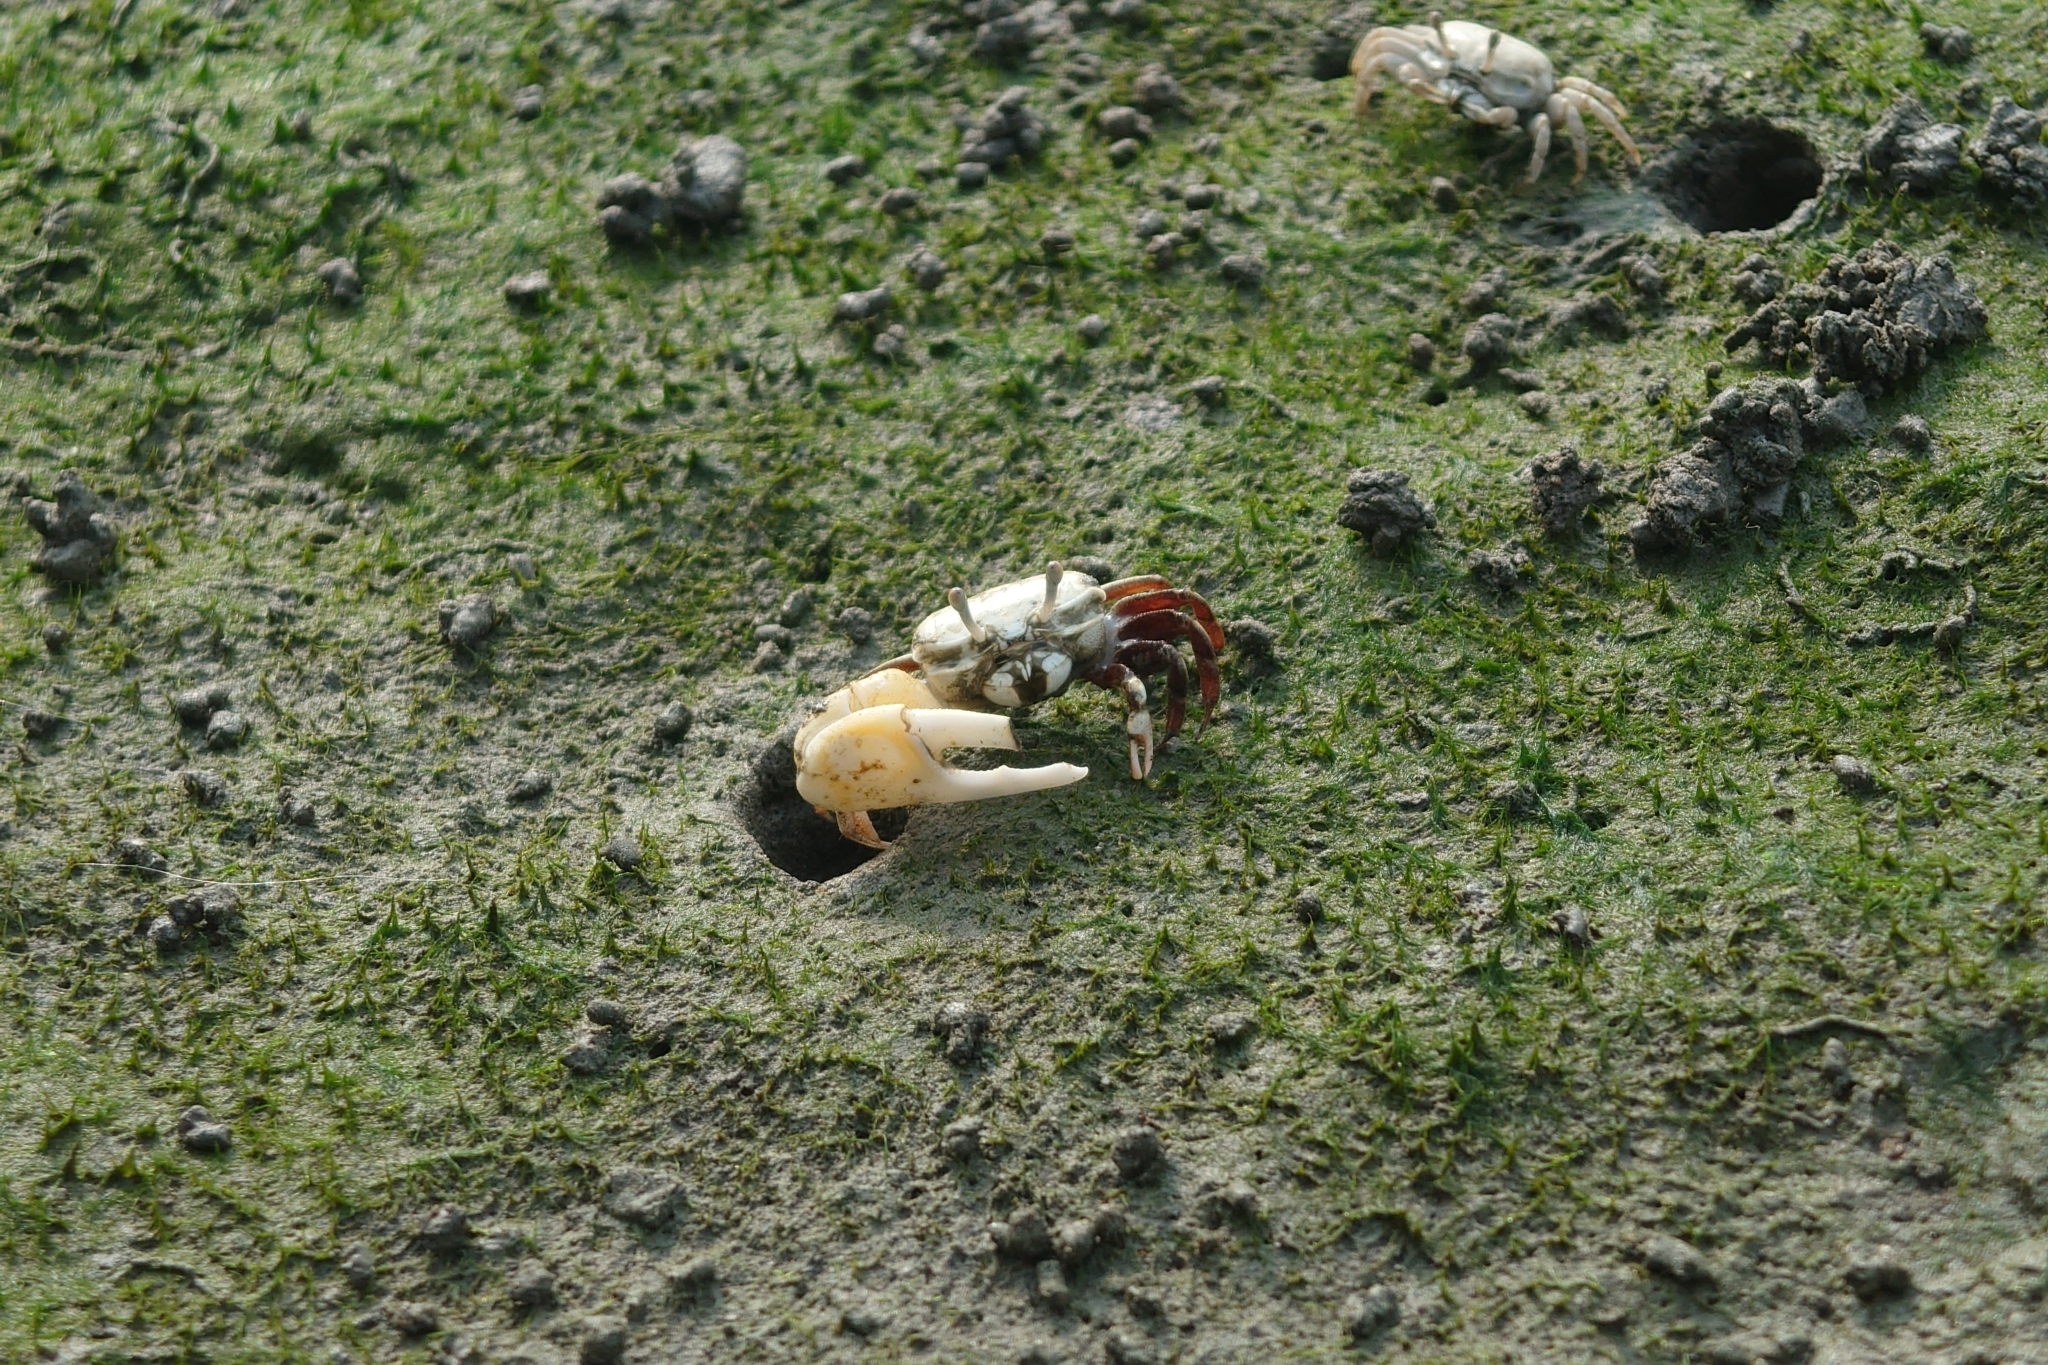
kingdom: Animalia
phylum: Arthropoda
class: Malacostraca
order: Decapoda
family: Ocypodidae
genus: Austruca
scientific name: Austruca lactea
